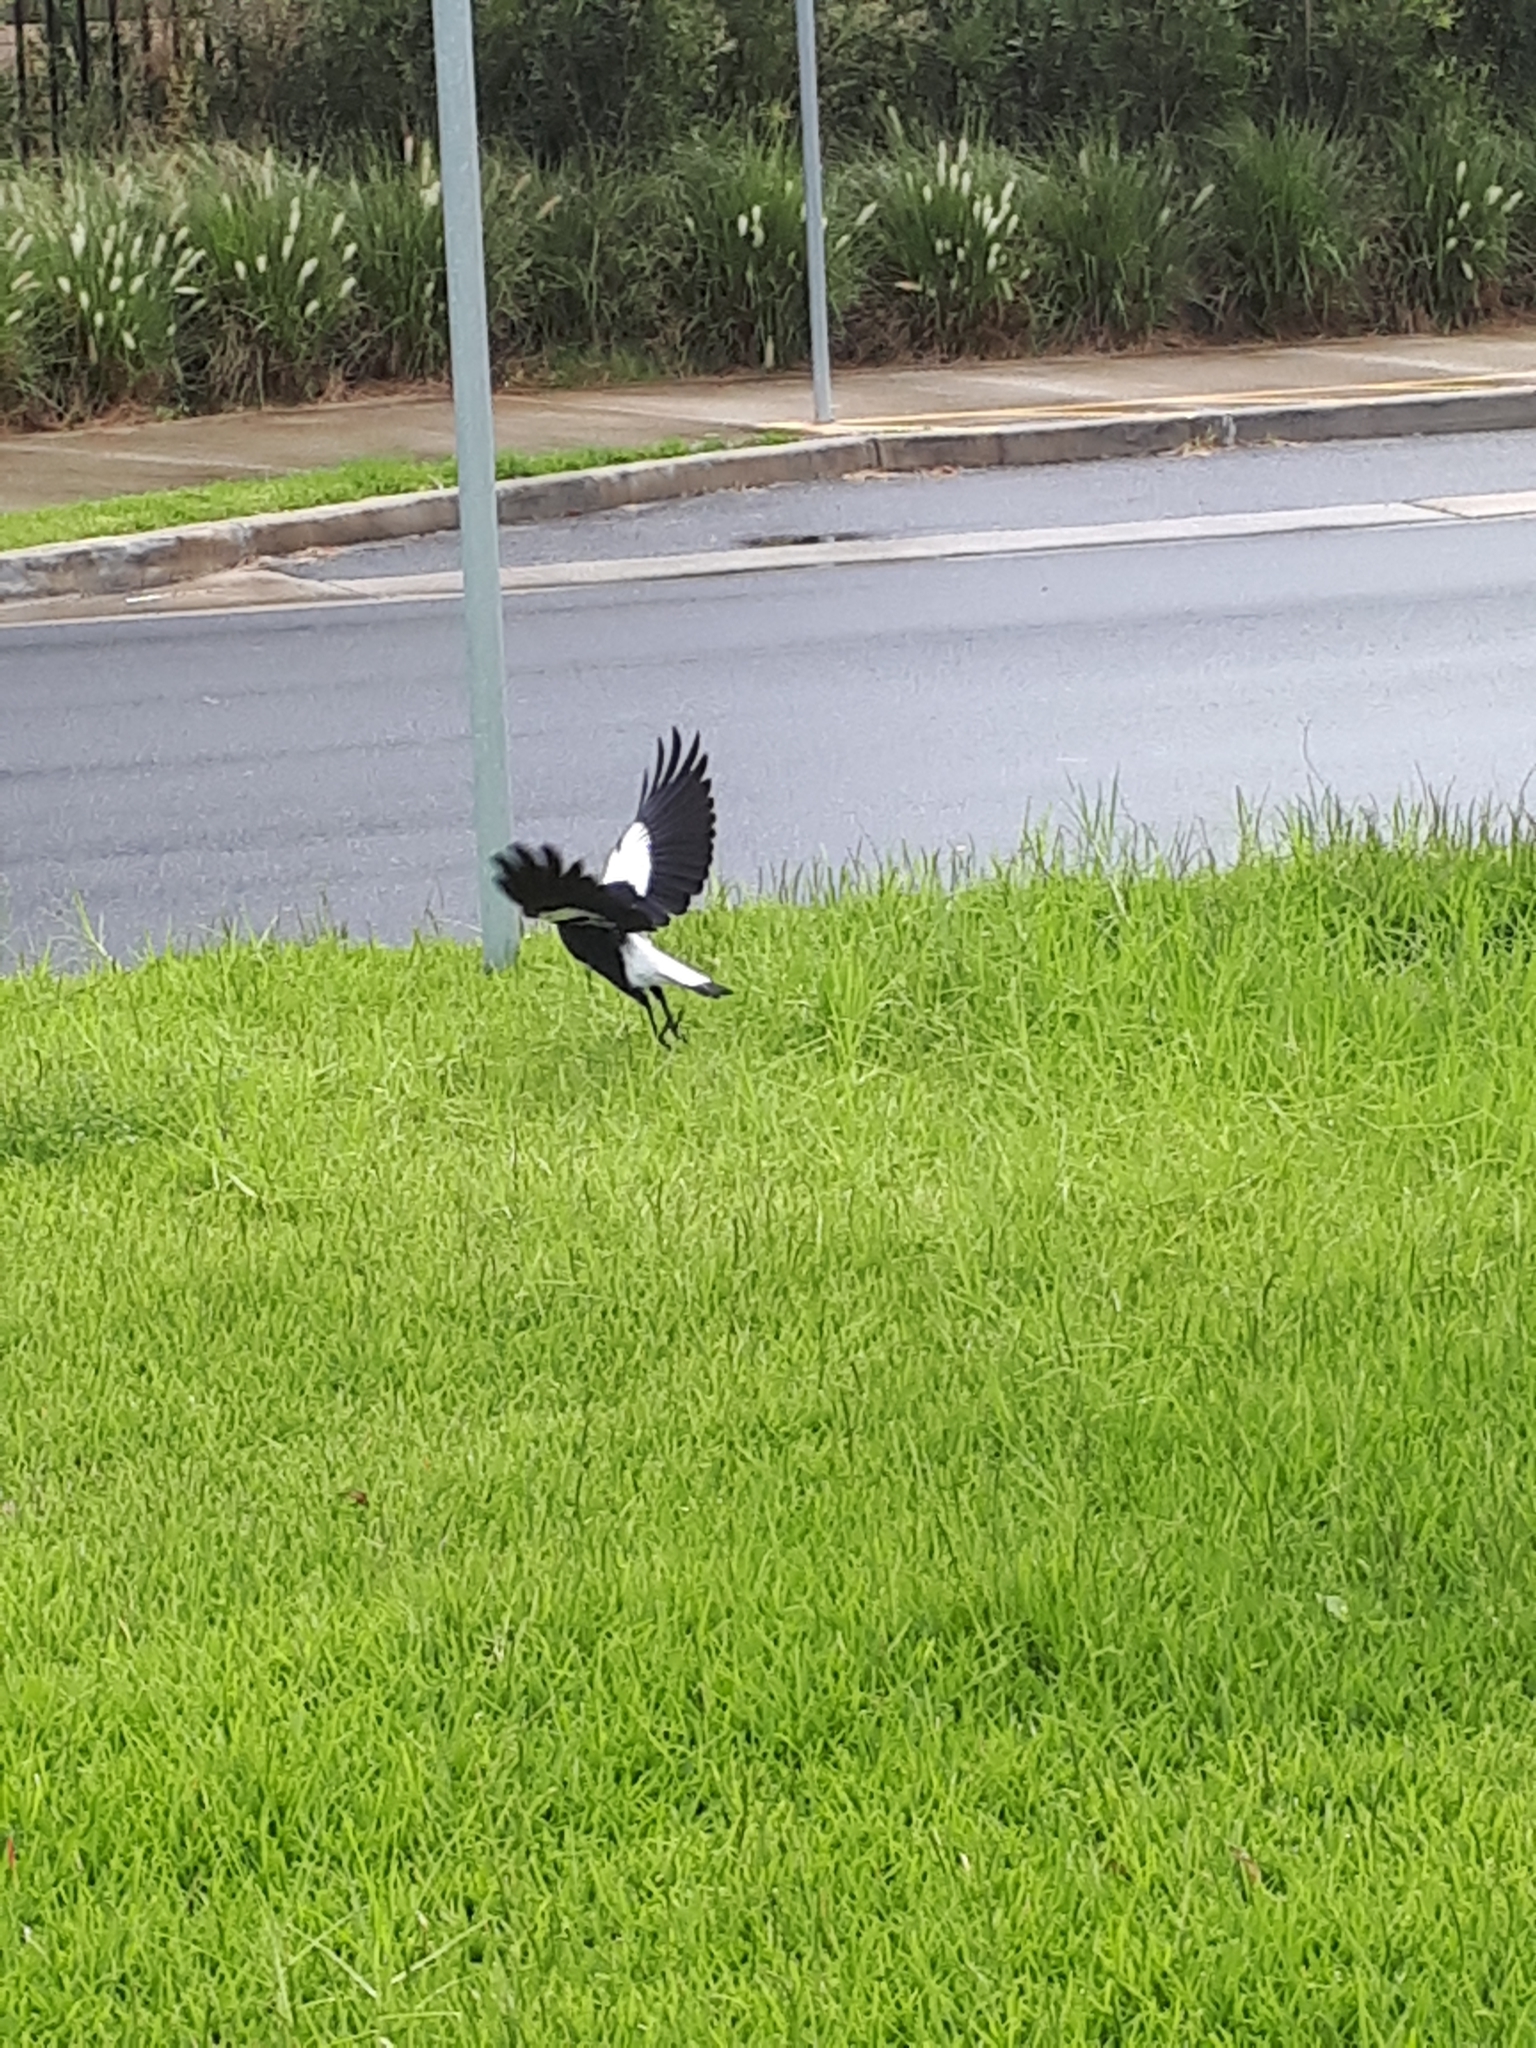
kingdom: Animalia
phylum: Chordata
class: Aves
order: Passeriformes
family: Cracticidae
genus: Gymnorhina
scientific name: Gymnorhina tibicen
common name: Australian magpie
